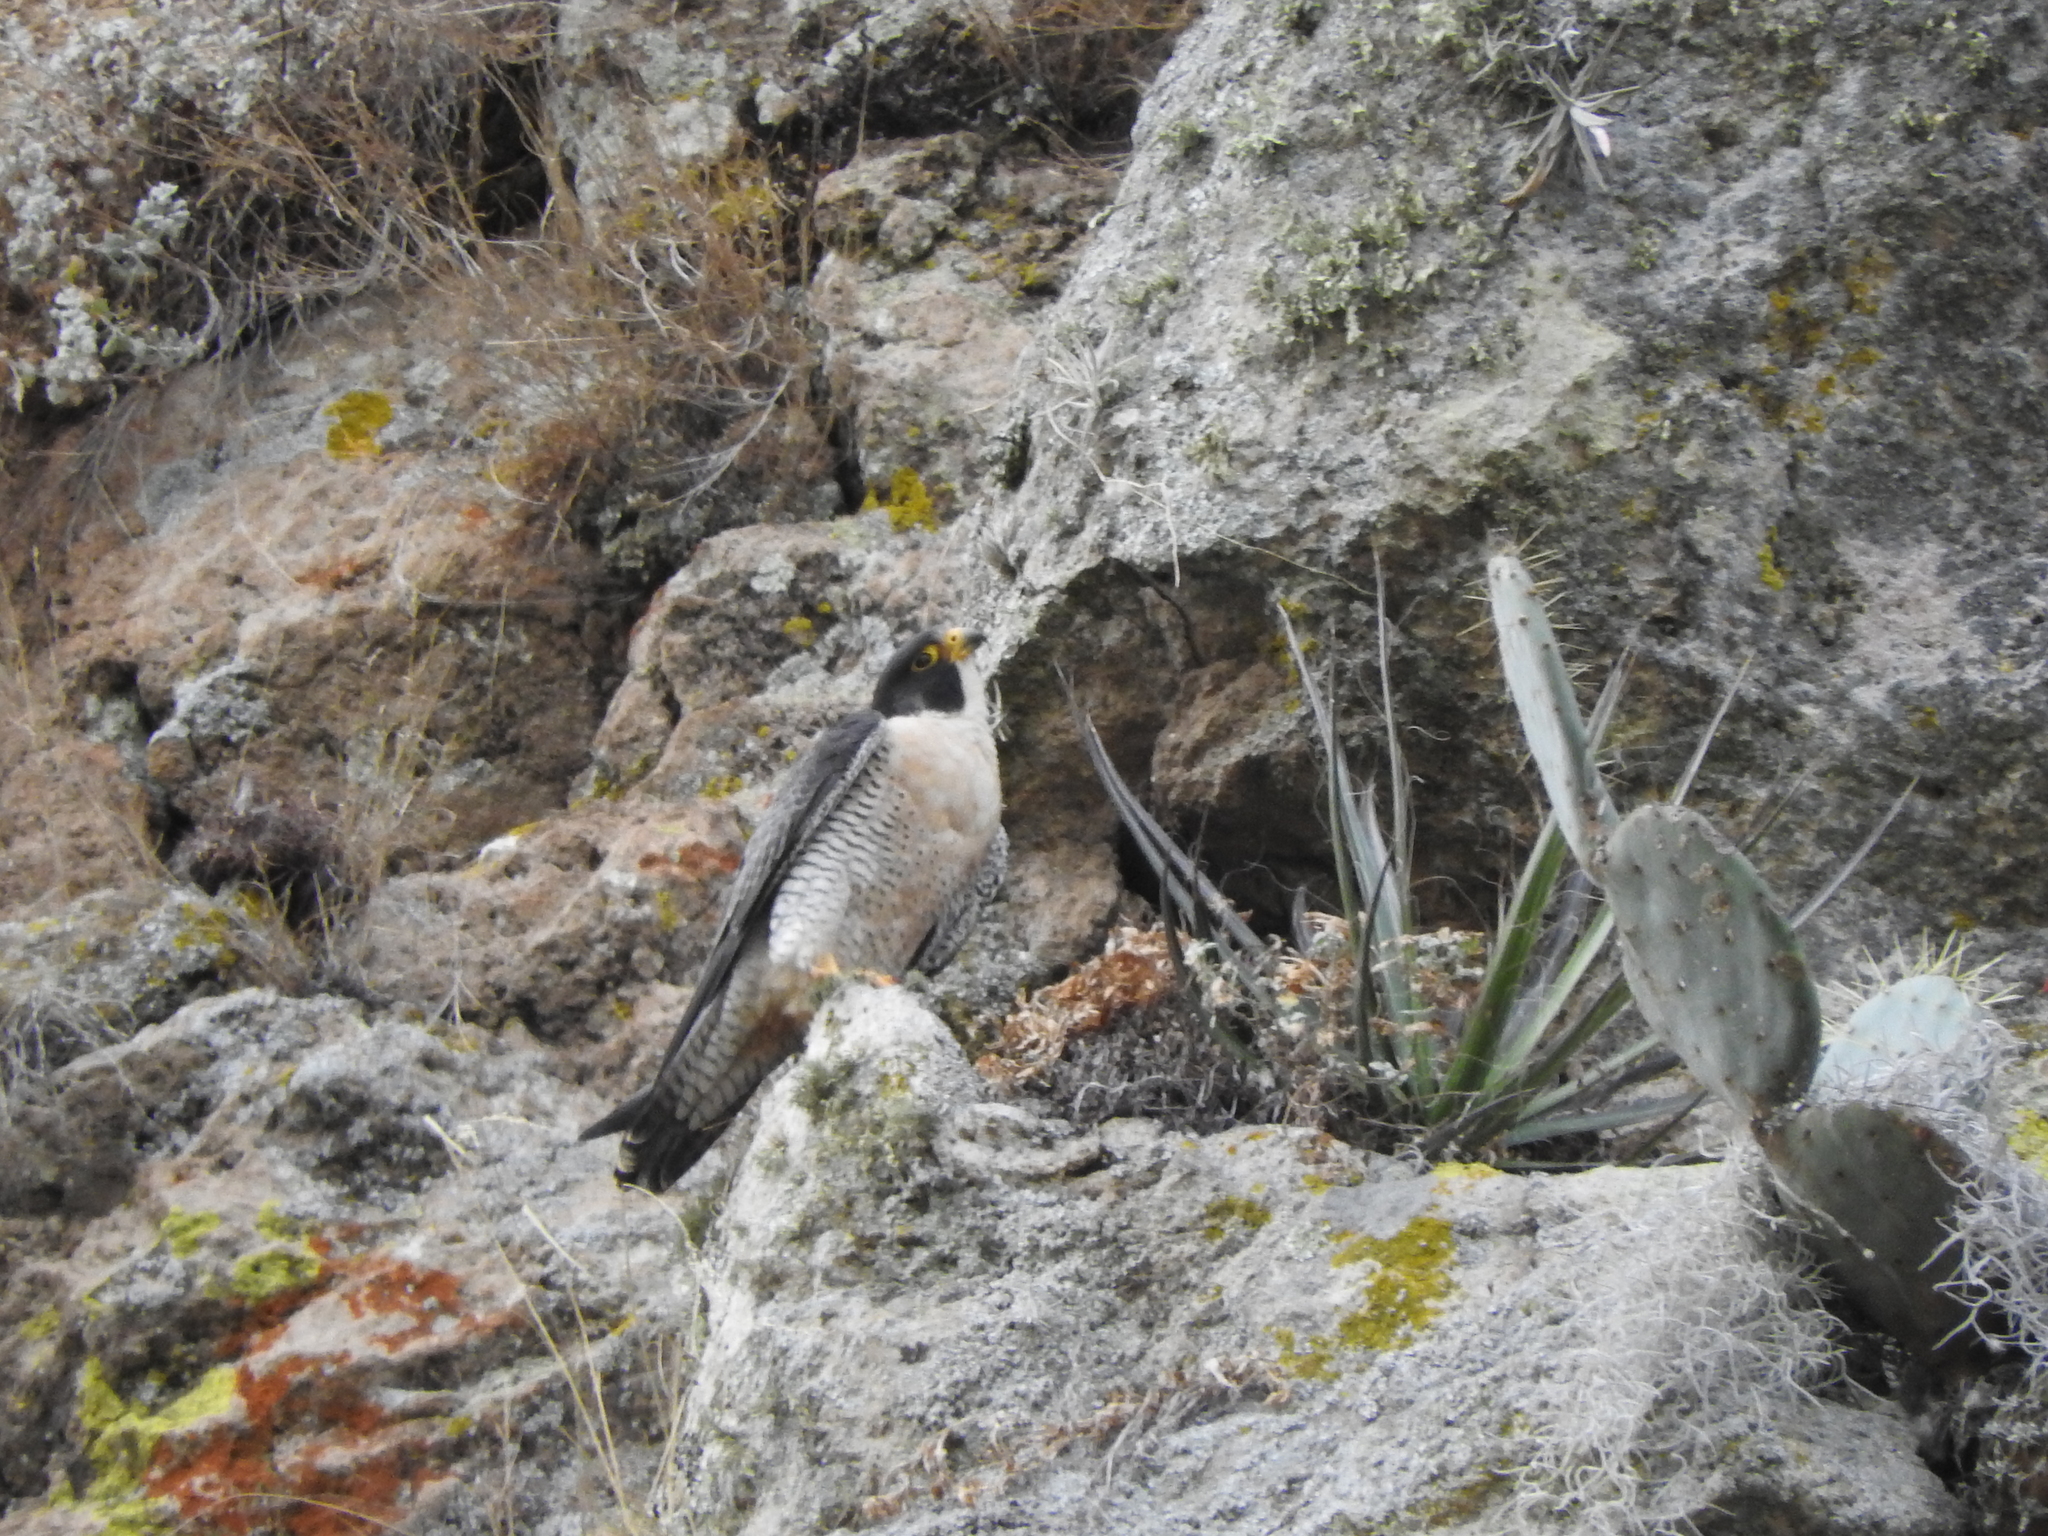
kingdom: Animalia
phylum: Chordata
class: Aves
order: Falconiformes
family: Falconidae
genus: Falco
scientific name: Falco peregrinus
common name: Peregrine falcon
